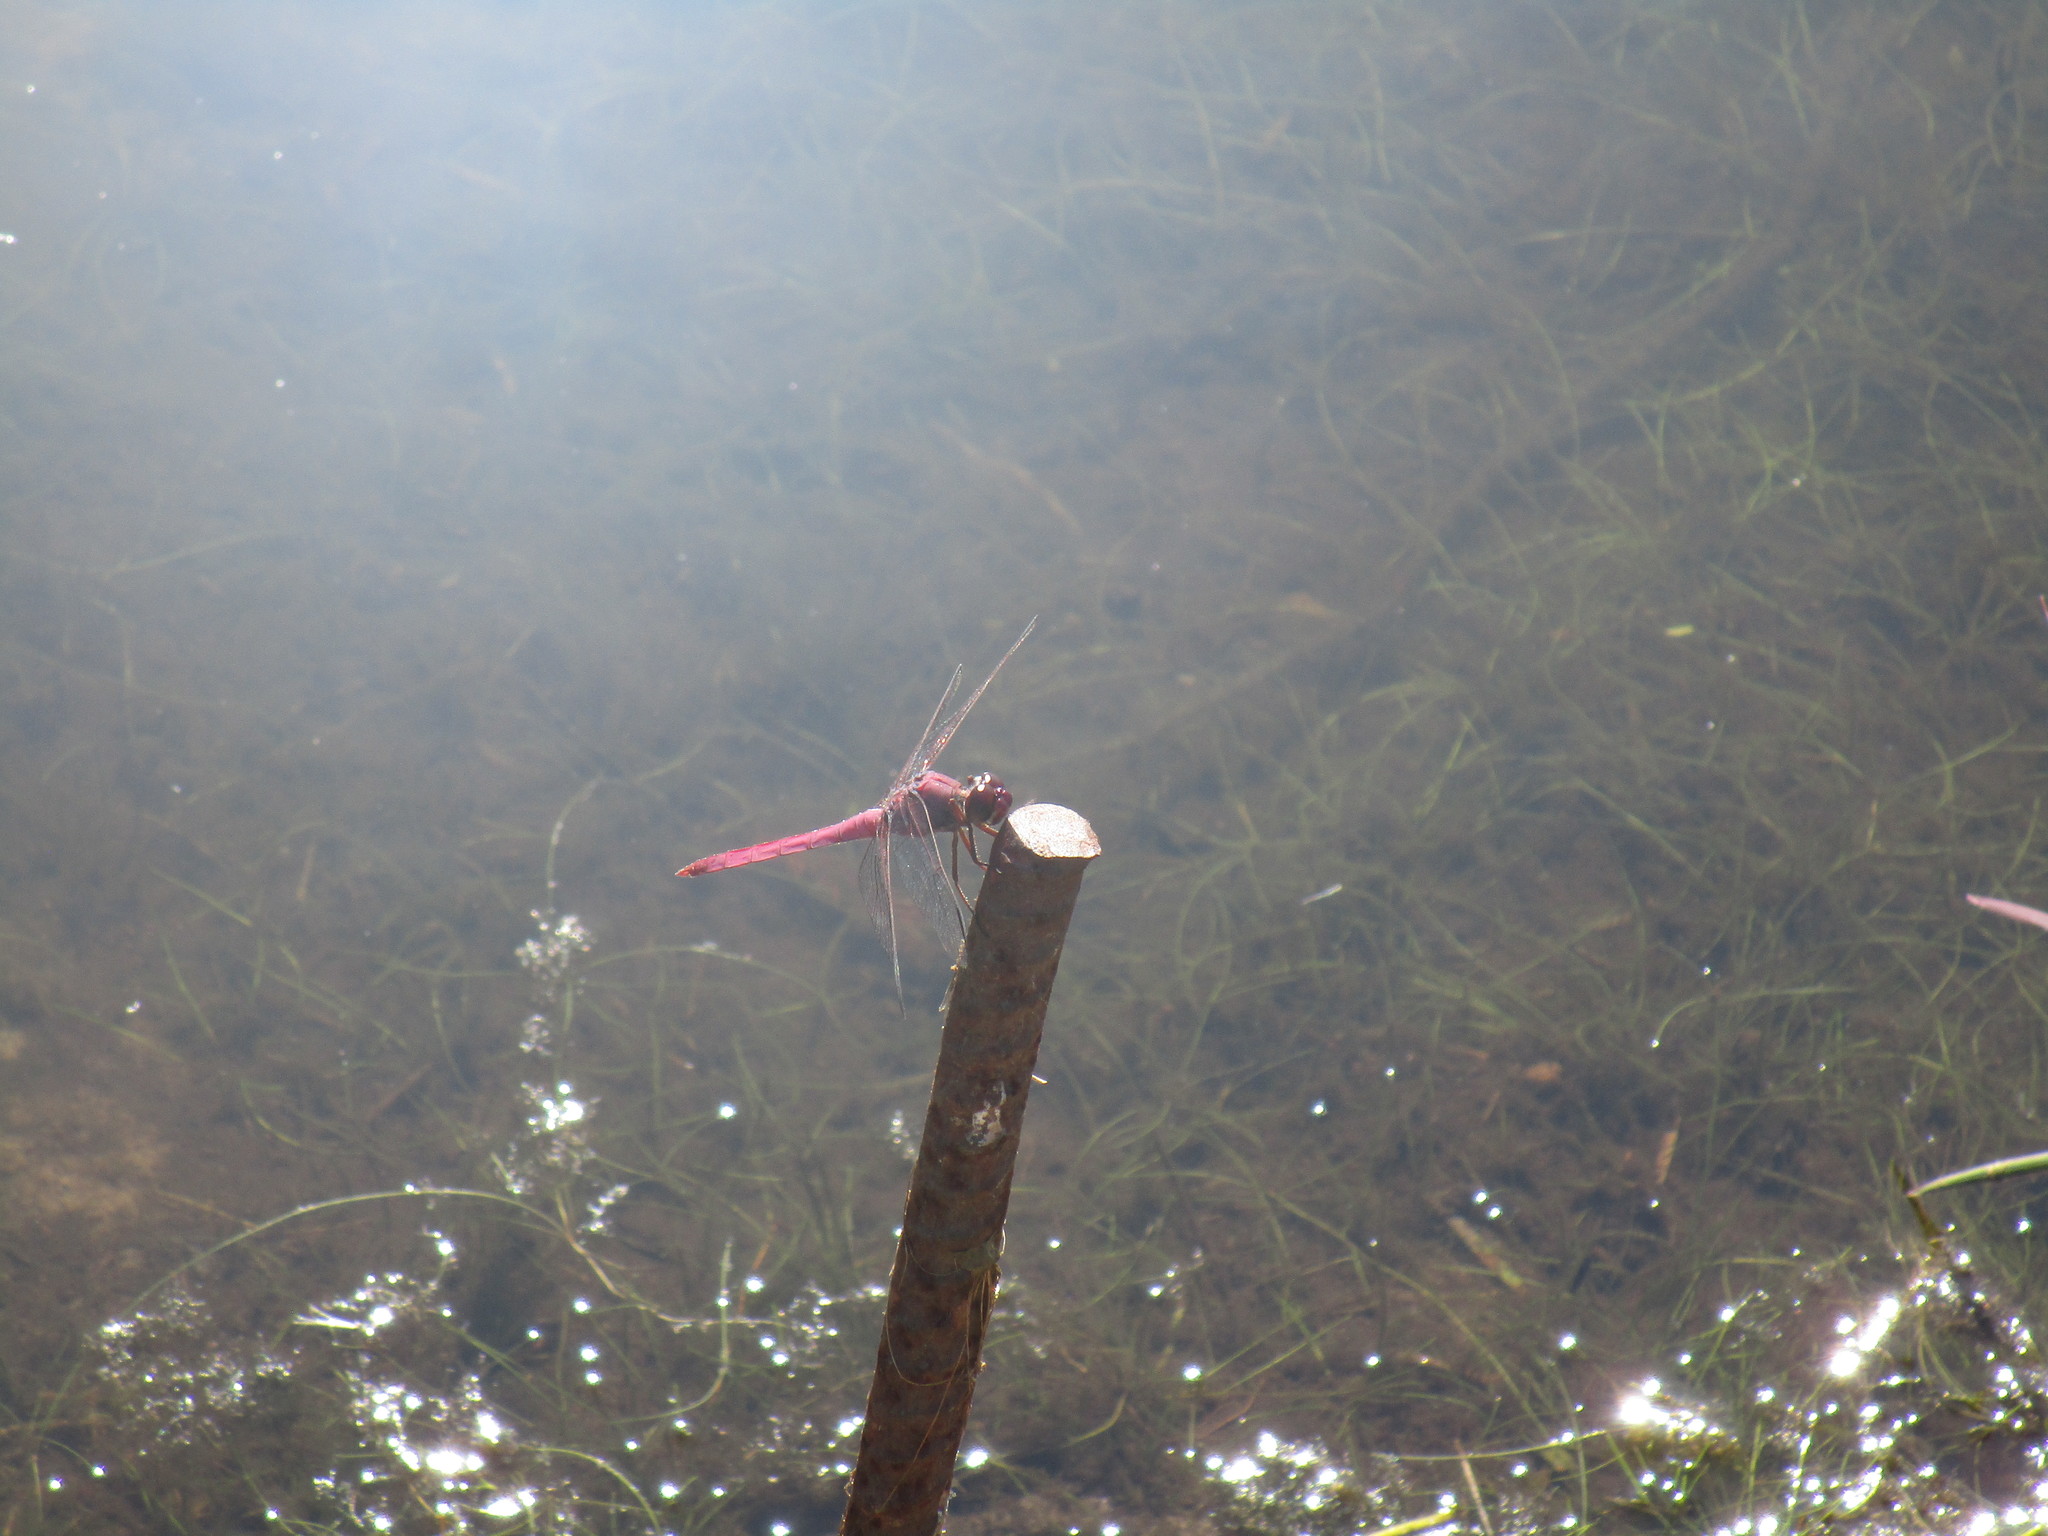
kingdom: Animalia
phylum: Arthropoda
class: Insecta
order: Odonata
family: Libellulidae
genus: Orthemis
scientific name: Orthemis ferruginea
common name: Roseate skimmer
